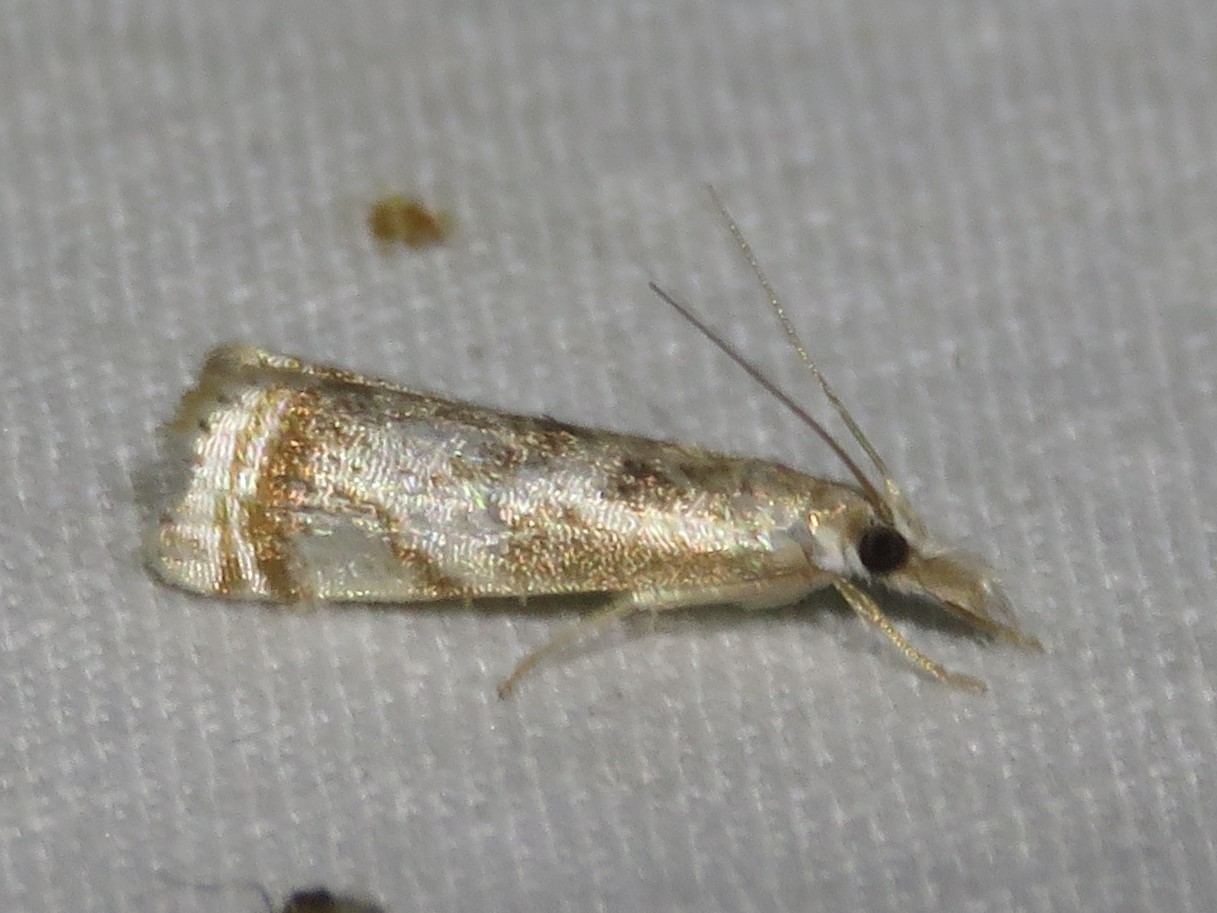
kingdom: Animalia
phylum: Arthropoda
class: Insecta
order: Lepidoptera
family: Crambidae
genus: Microcrambus
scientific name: Microcrambus elegans
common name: Elegant grass-veneer
